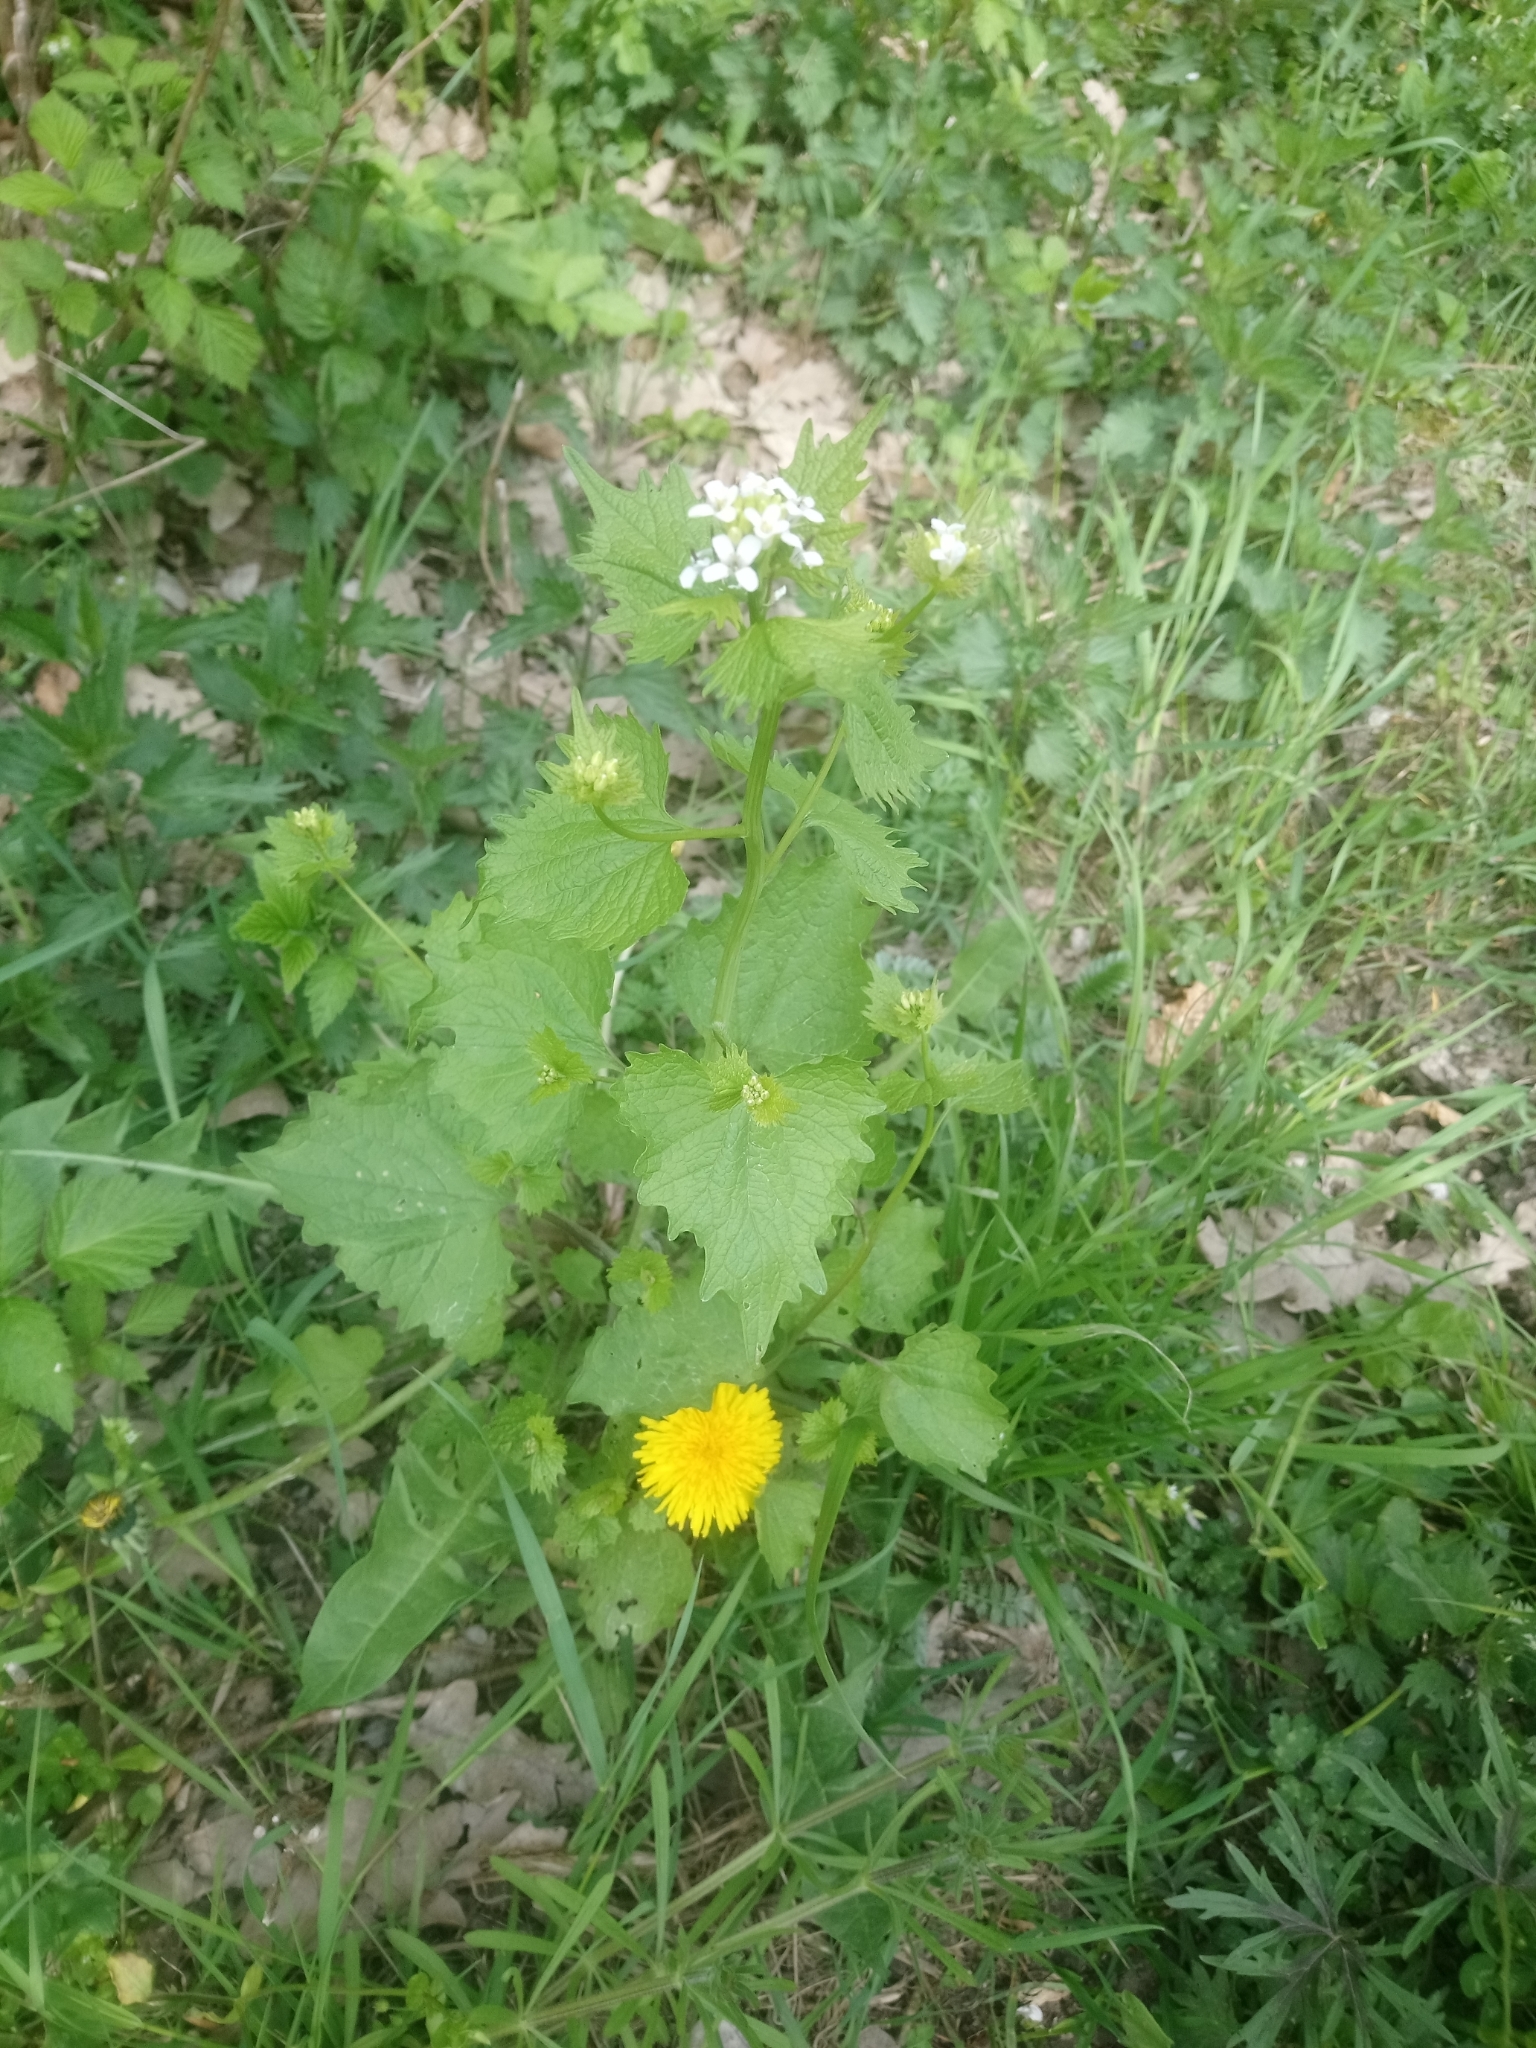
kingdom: Plantae
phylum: Tracheophyta
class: Magnoliopsida
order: Brassicales
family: Brassicaceae
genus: Alliaria
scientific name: Alliaria petiolata
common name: Garlic mustard
